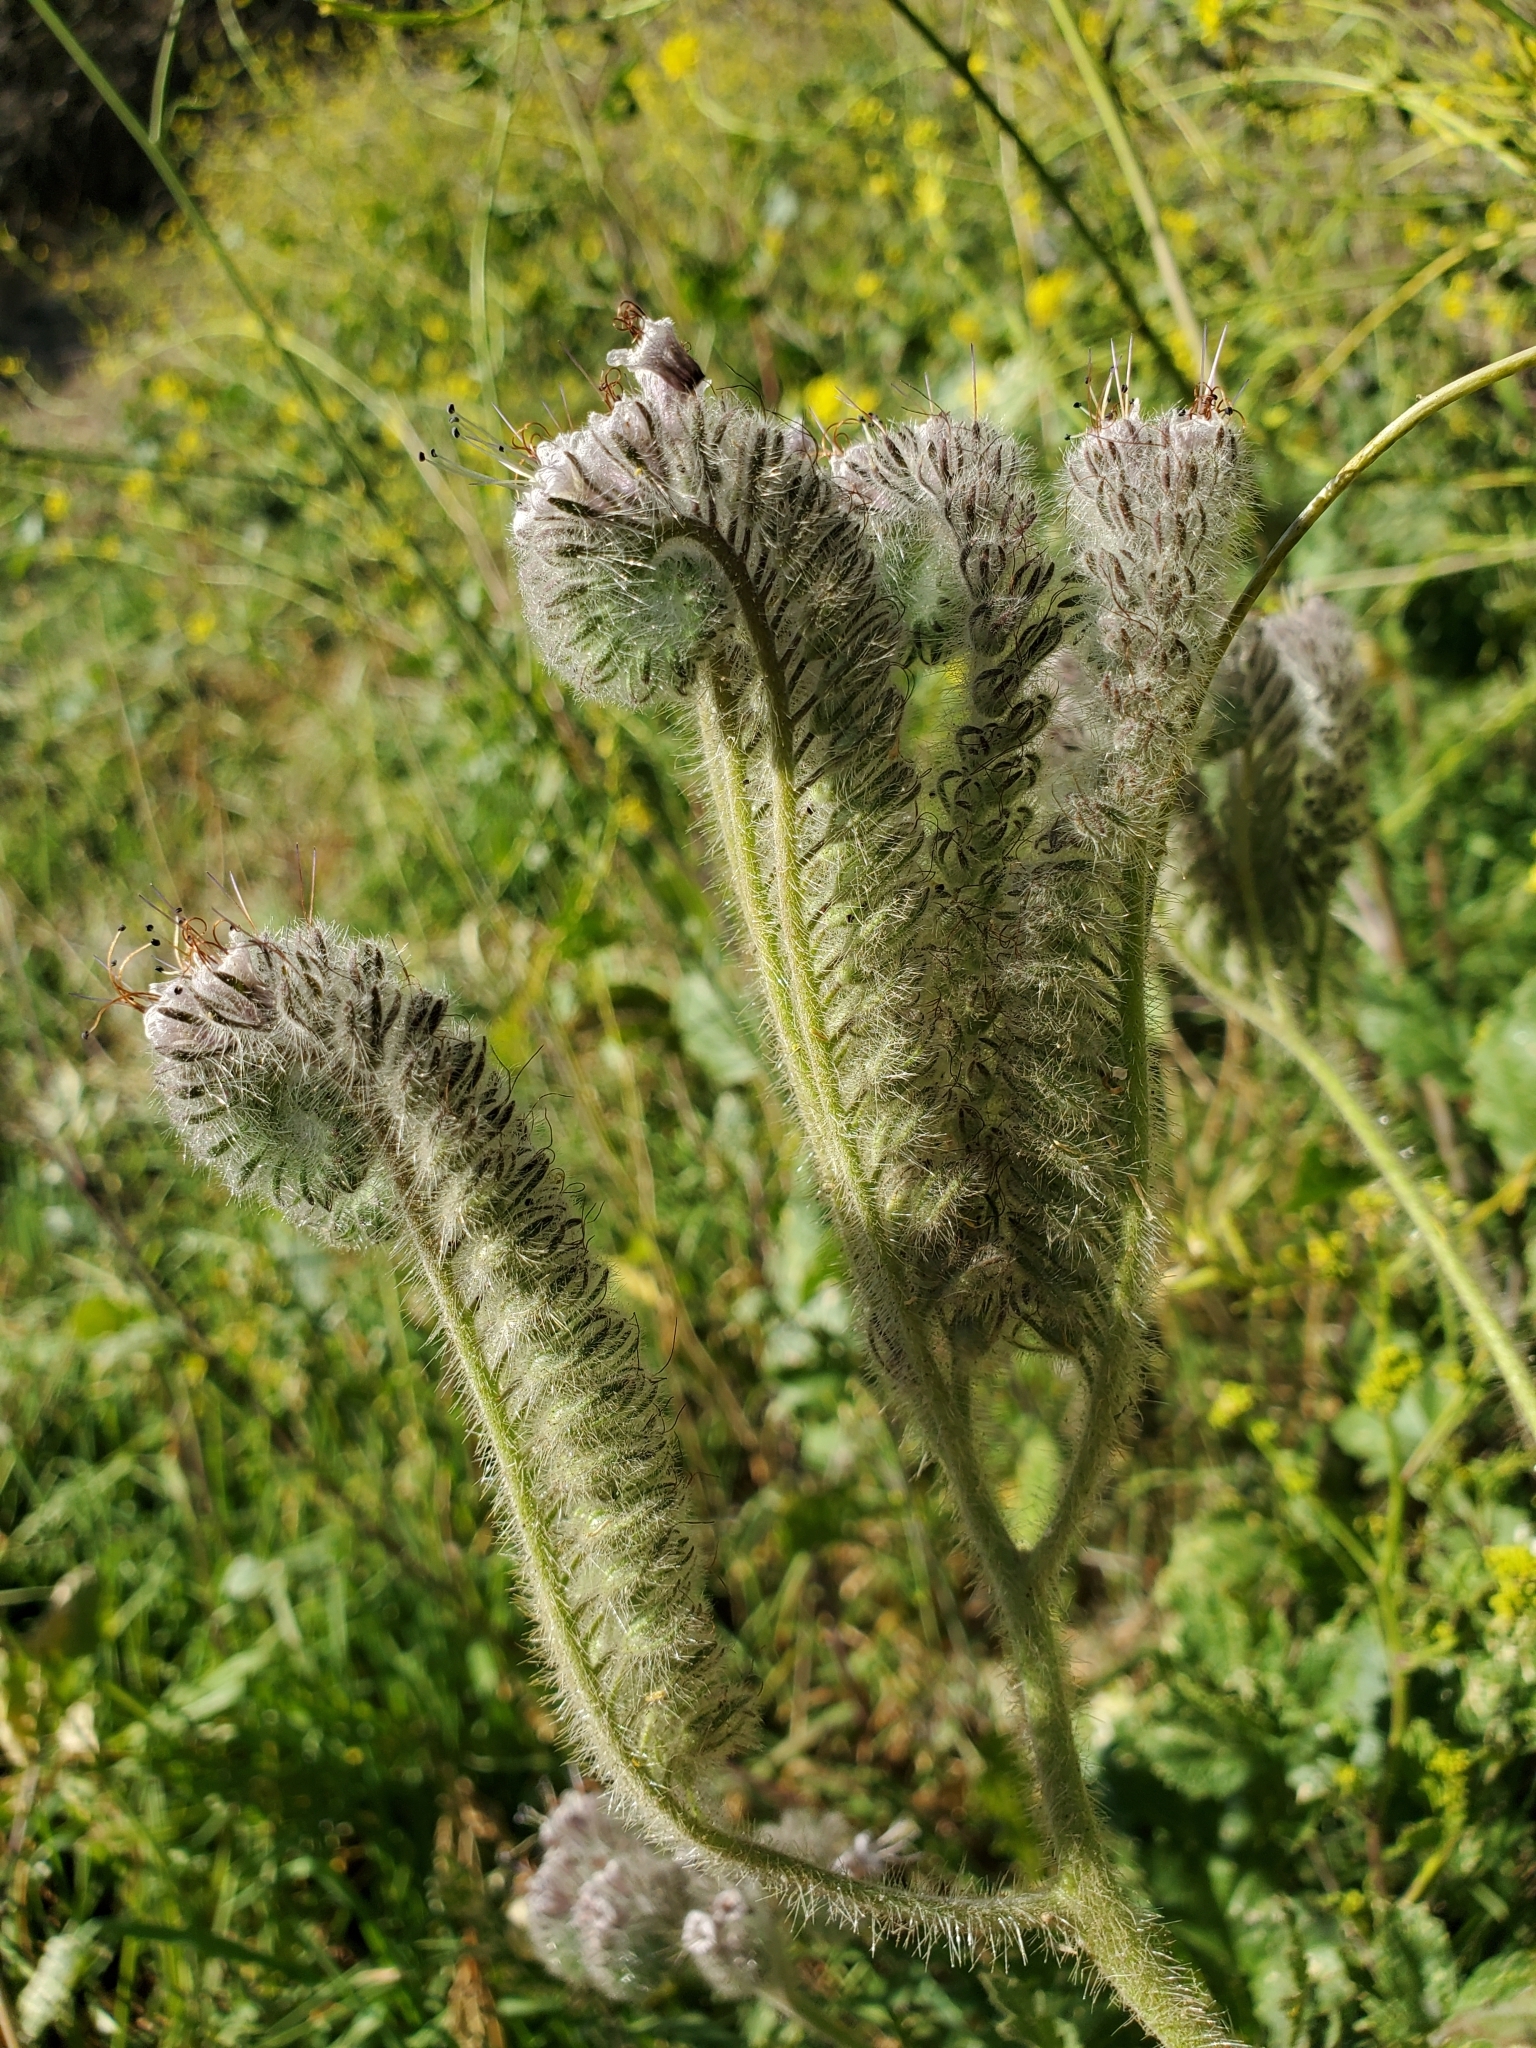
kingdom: Plantae
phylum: Tracheophyta
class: Magnoliopsida
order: Boraginales
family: Hydrophyllaceae
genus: Phacelia
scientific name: Phacelia hubbyi
